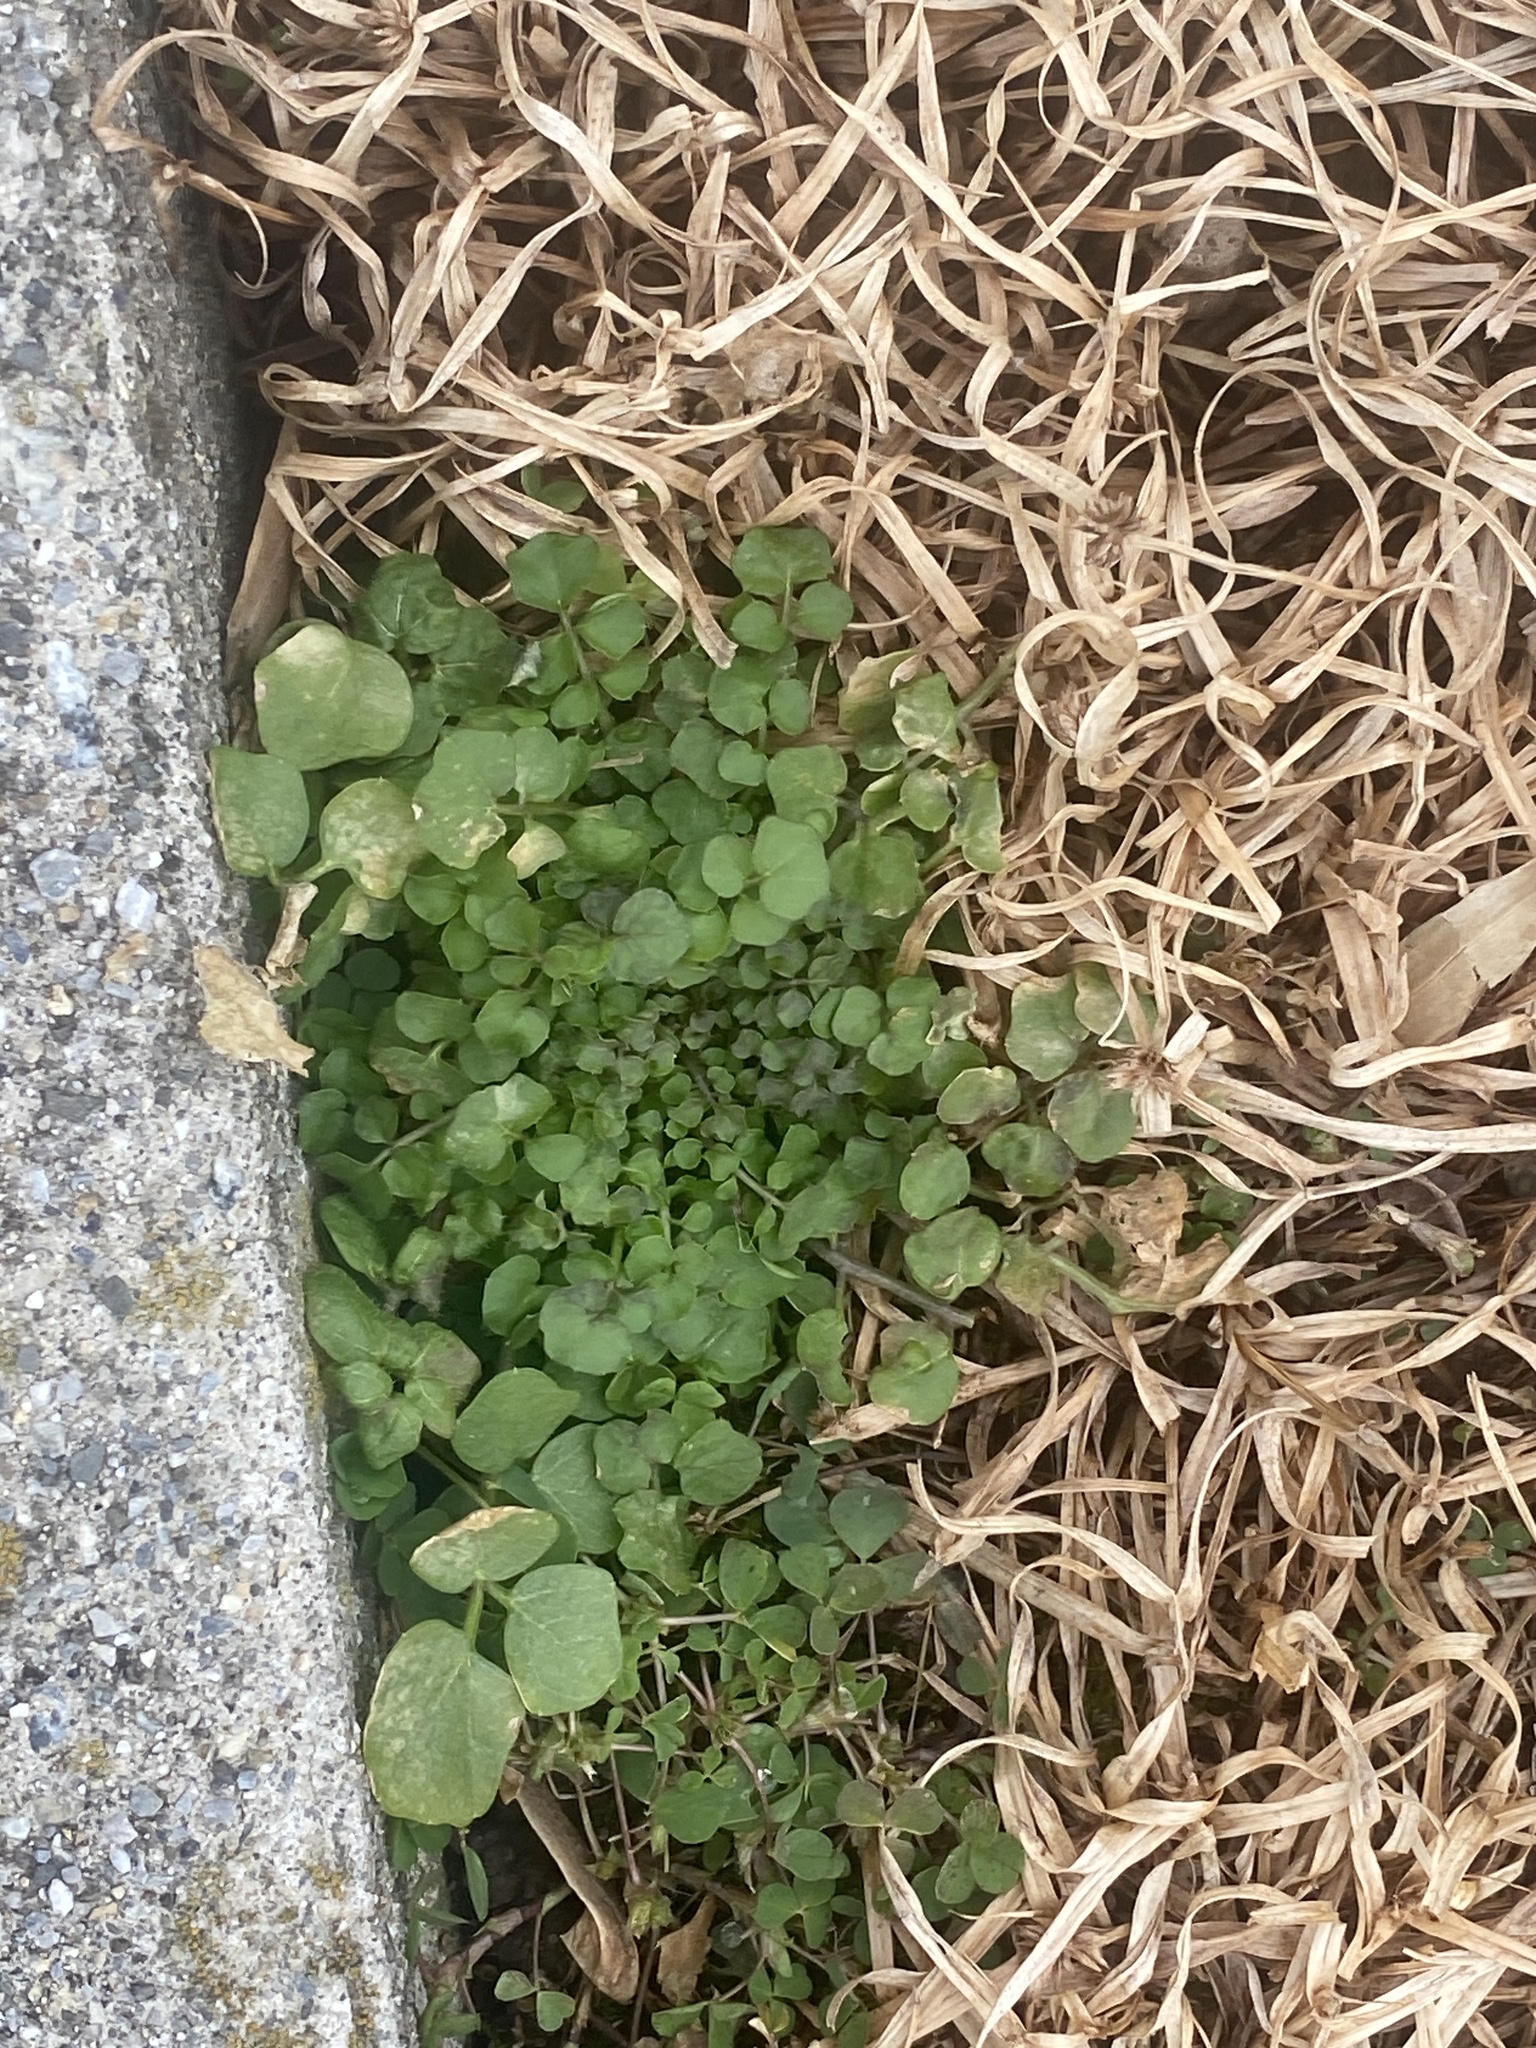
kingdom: Plantae
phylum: Tracheophyta
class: Magnoliopsida
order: Brassicales
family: Brassicaceae
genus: Cardamine
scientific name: Cardamine hirsuta
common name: Hairy bittercress
